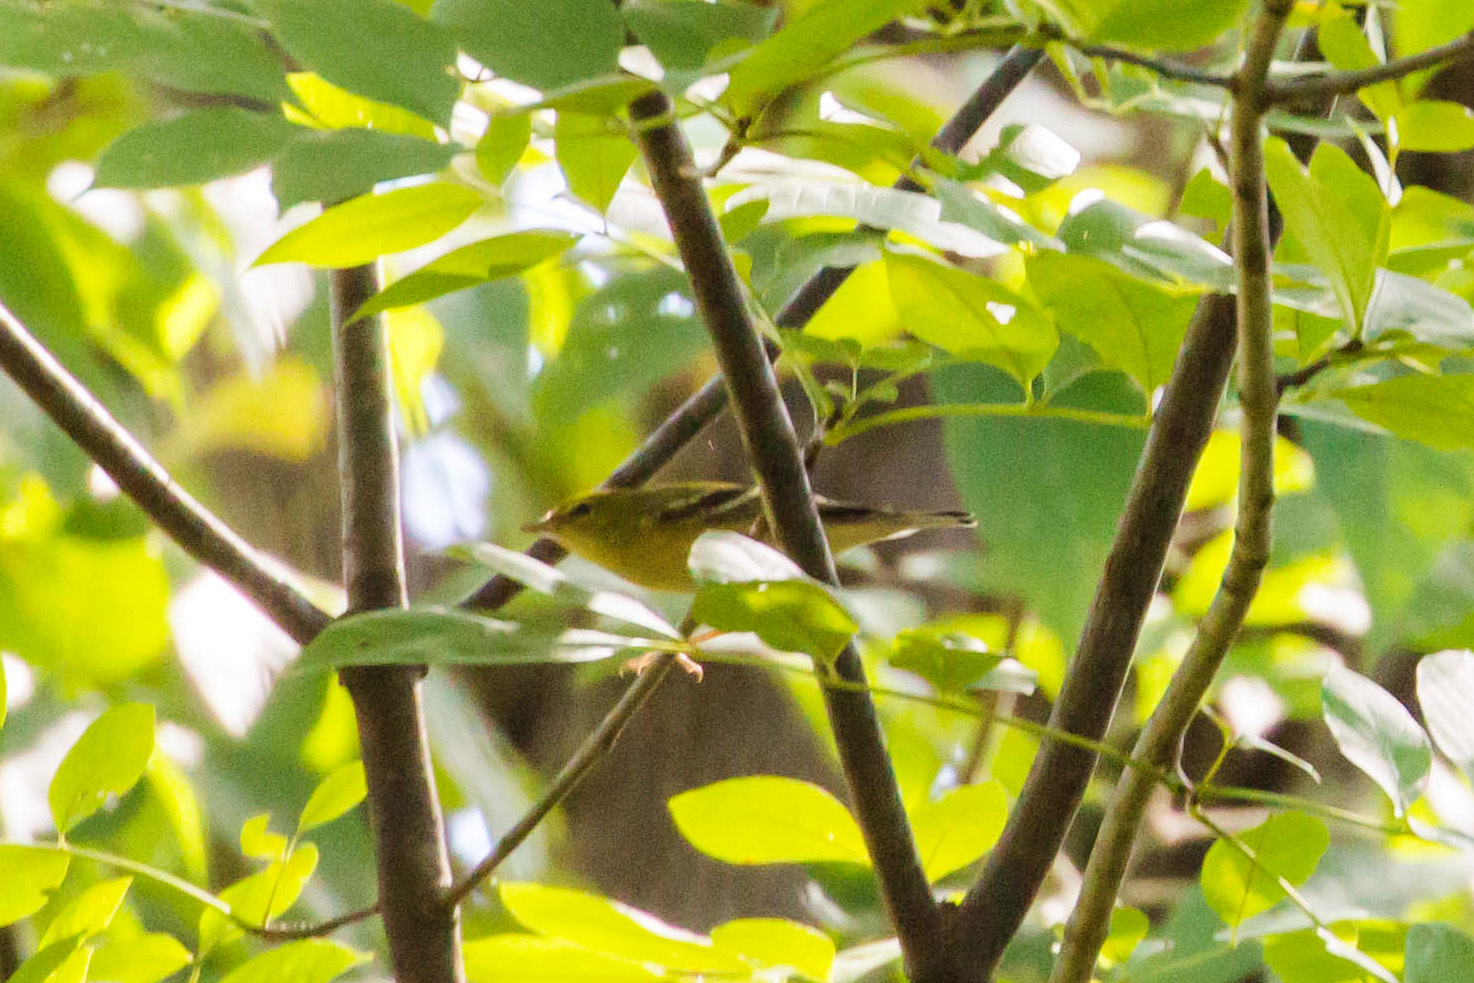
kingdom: Animalia
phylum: Chordata
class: Aves
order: Passeriformes
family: Parulidae
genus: Setophaga
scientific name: Setophaga striata
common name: Blackpoll warbler
